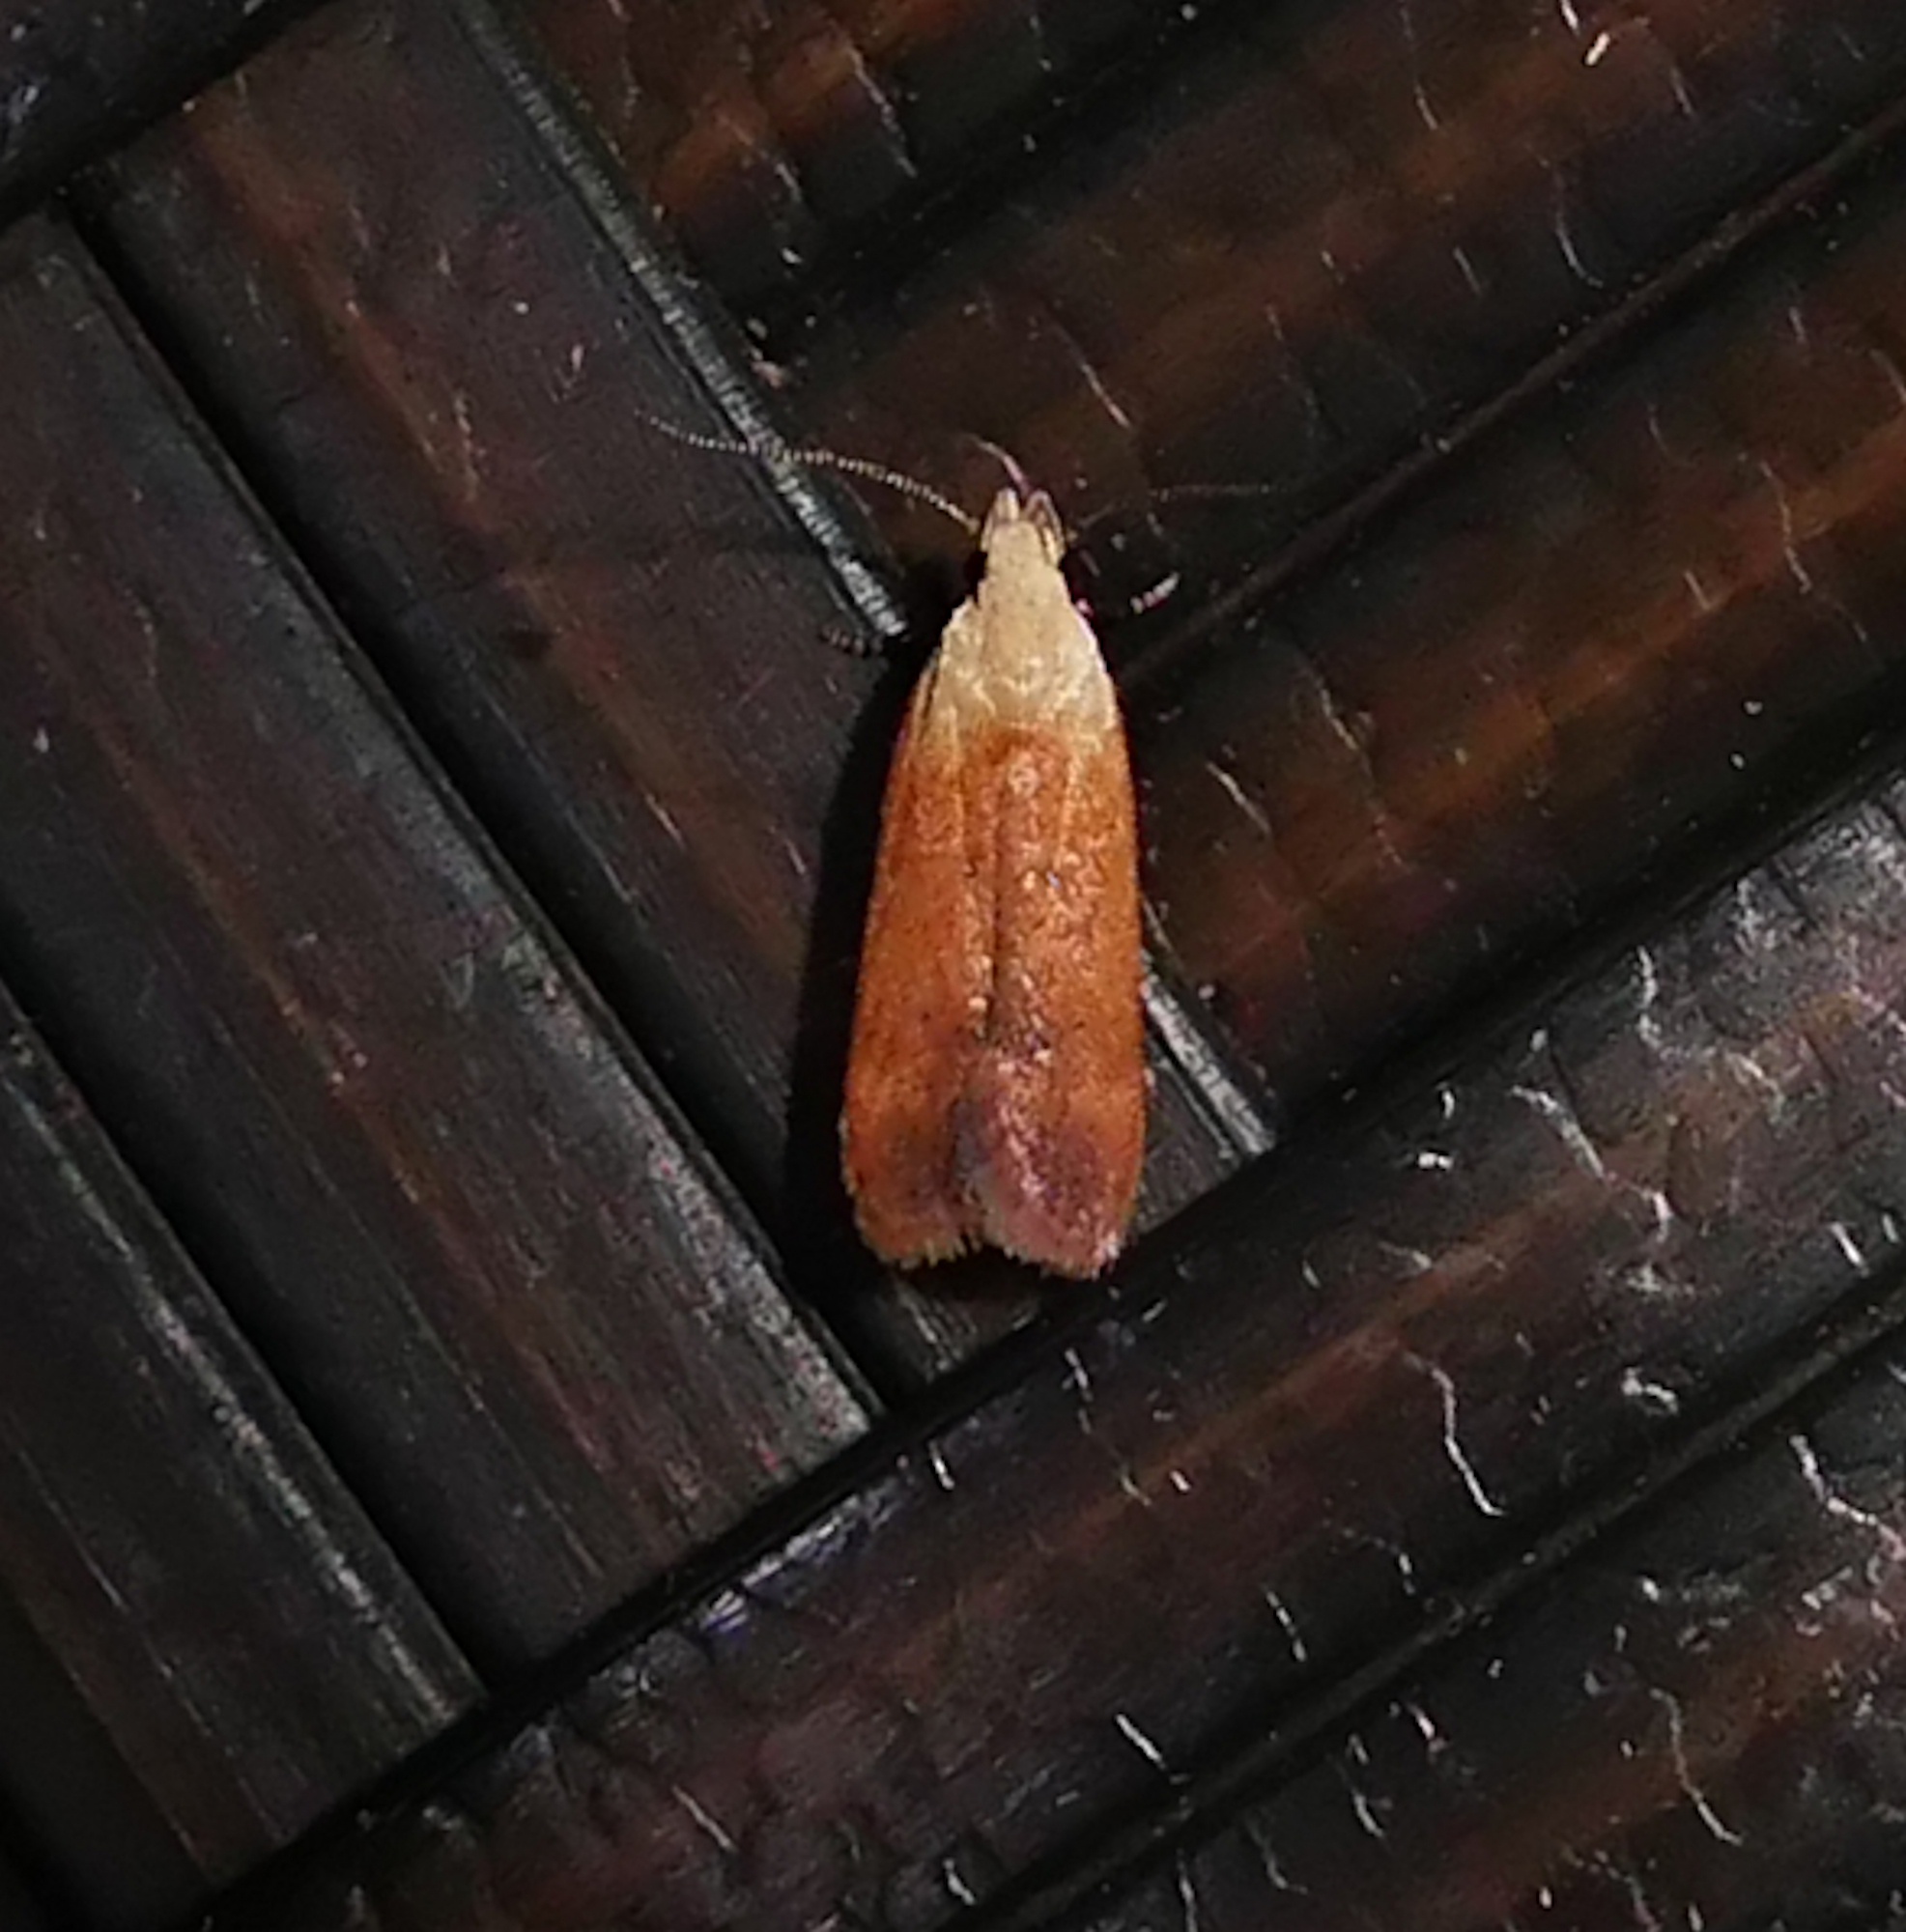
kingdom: Animalia
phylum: Arthropoda
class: Insecta
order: Lepidoptera
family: Gelechiidae
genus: Anacampsis
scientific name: Anacampsis fullonella
